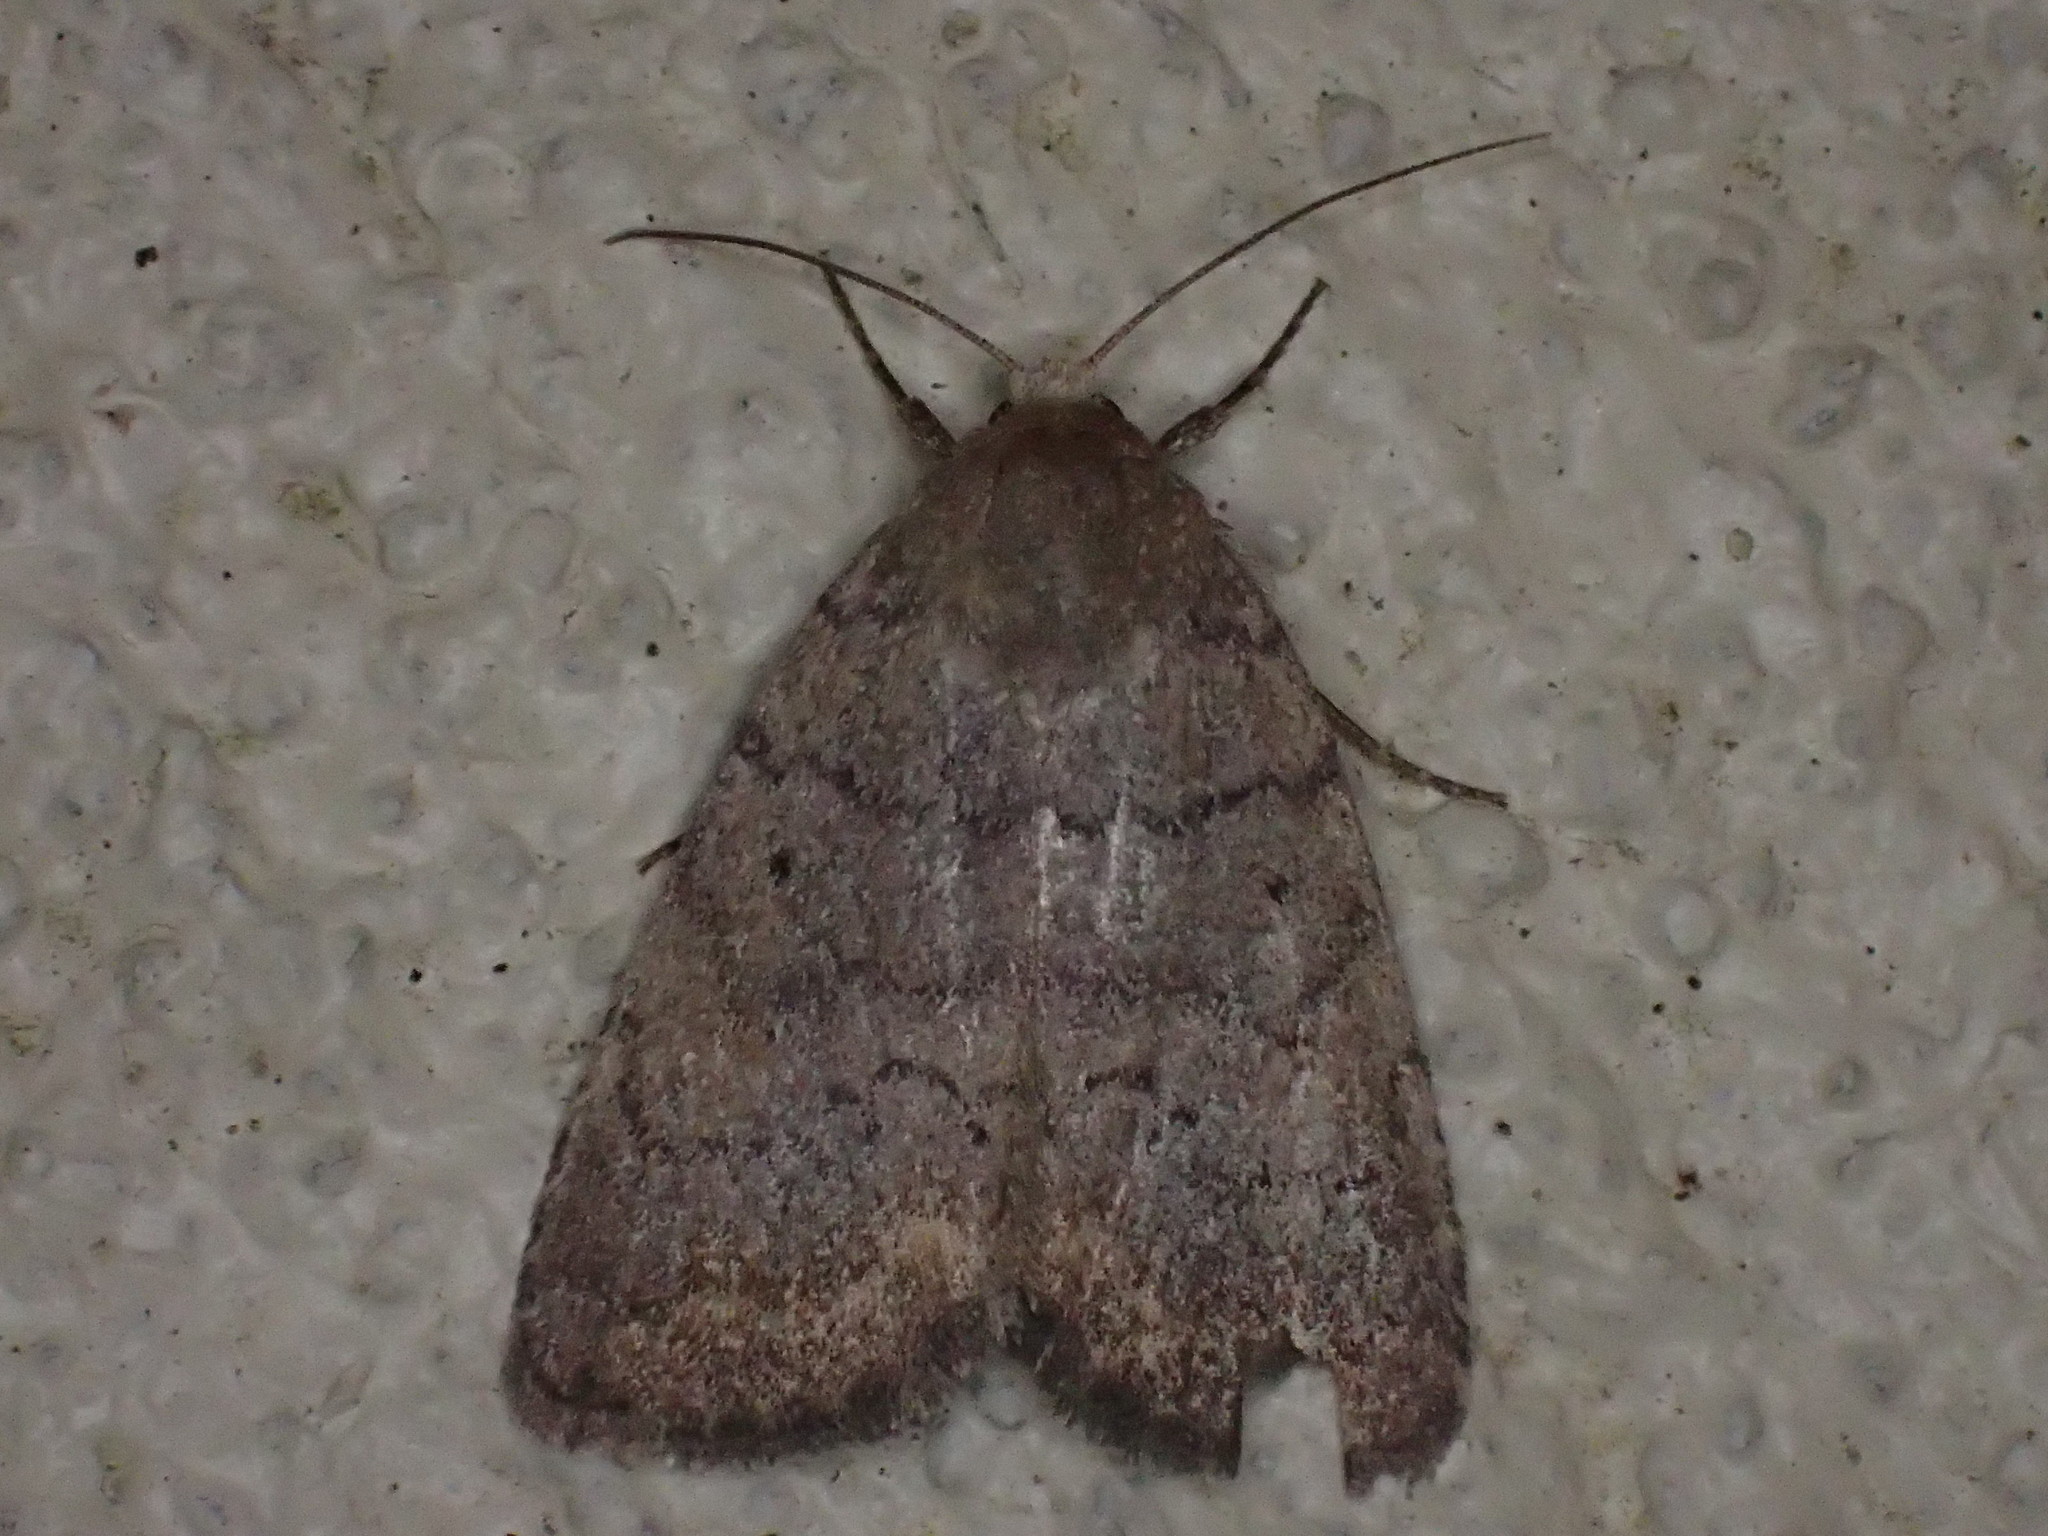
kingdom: Animalia
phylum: Arthropoda
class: Insecta
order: Lepidoptera
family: Noctuidae
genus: Athetis
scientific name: Athetis tarda
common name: Slowpoke moth
